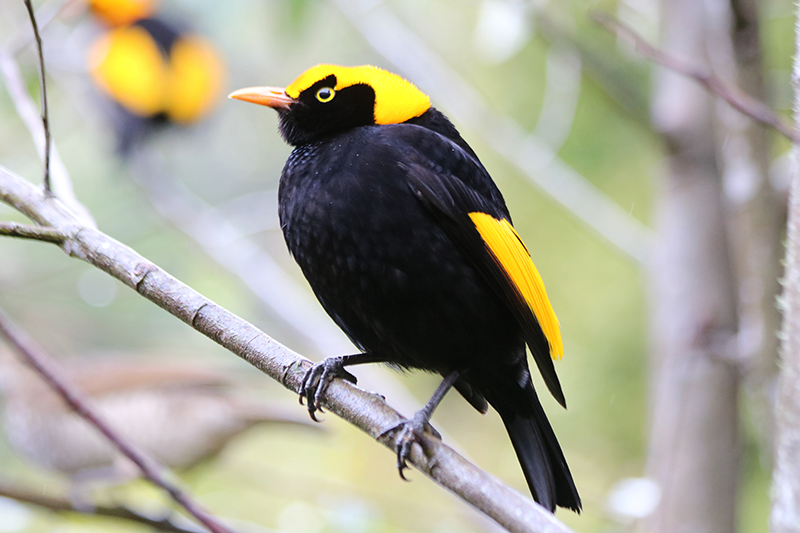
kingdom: Animalia
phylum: Chordata
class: Aves
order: Passeriformes
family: Ptilonorhynchidae
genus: Sericulus
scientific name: Sericulus chrysocephalus
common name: Regent bowerbird
